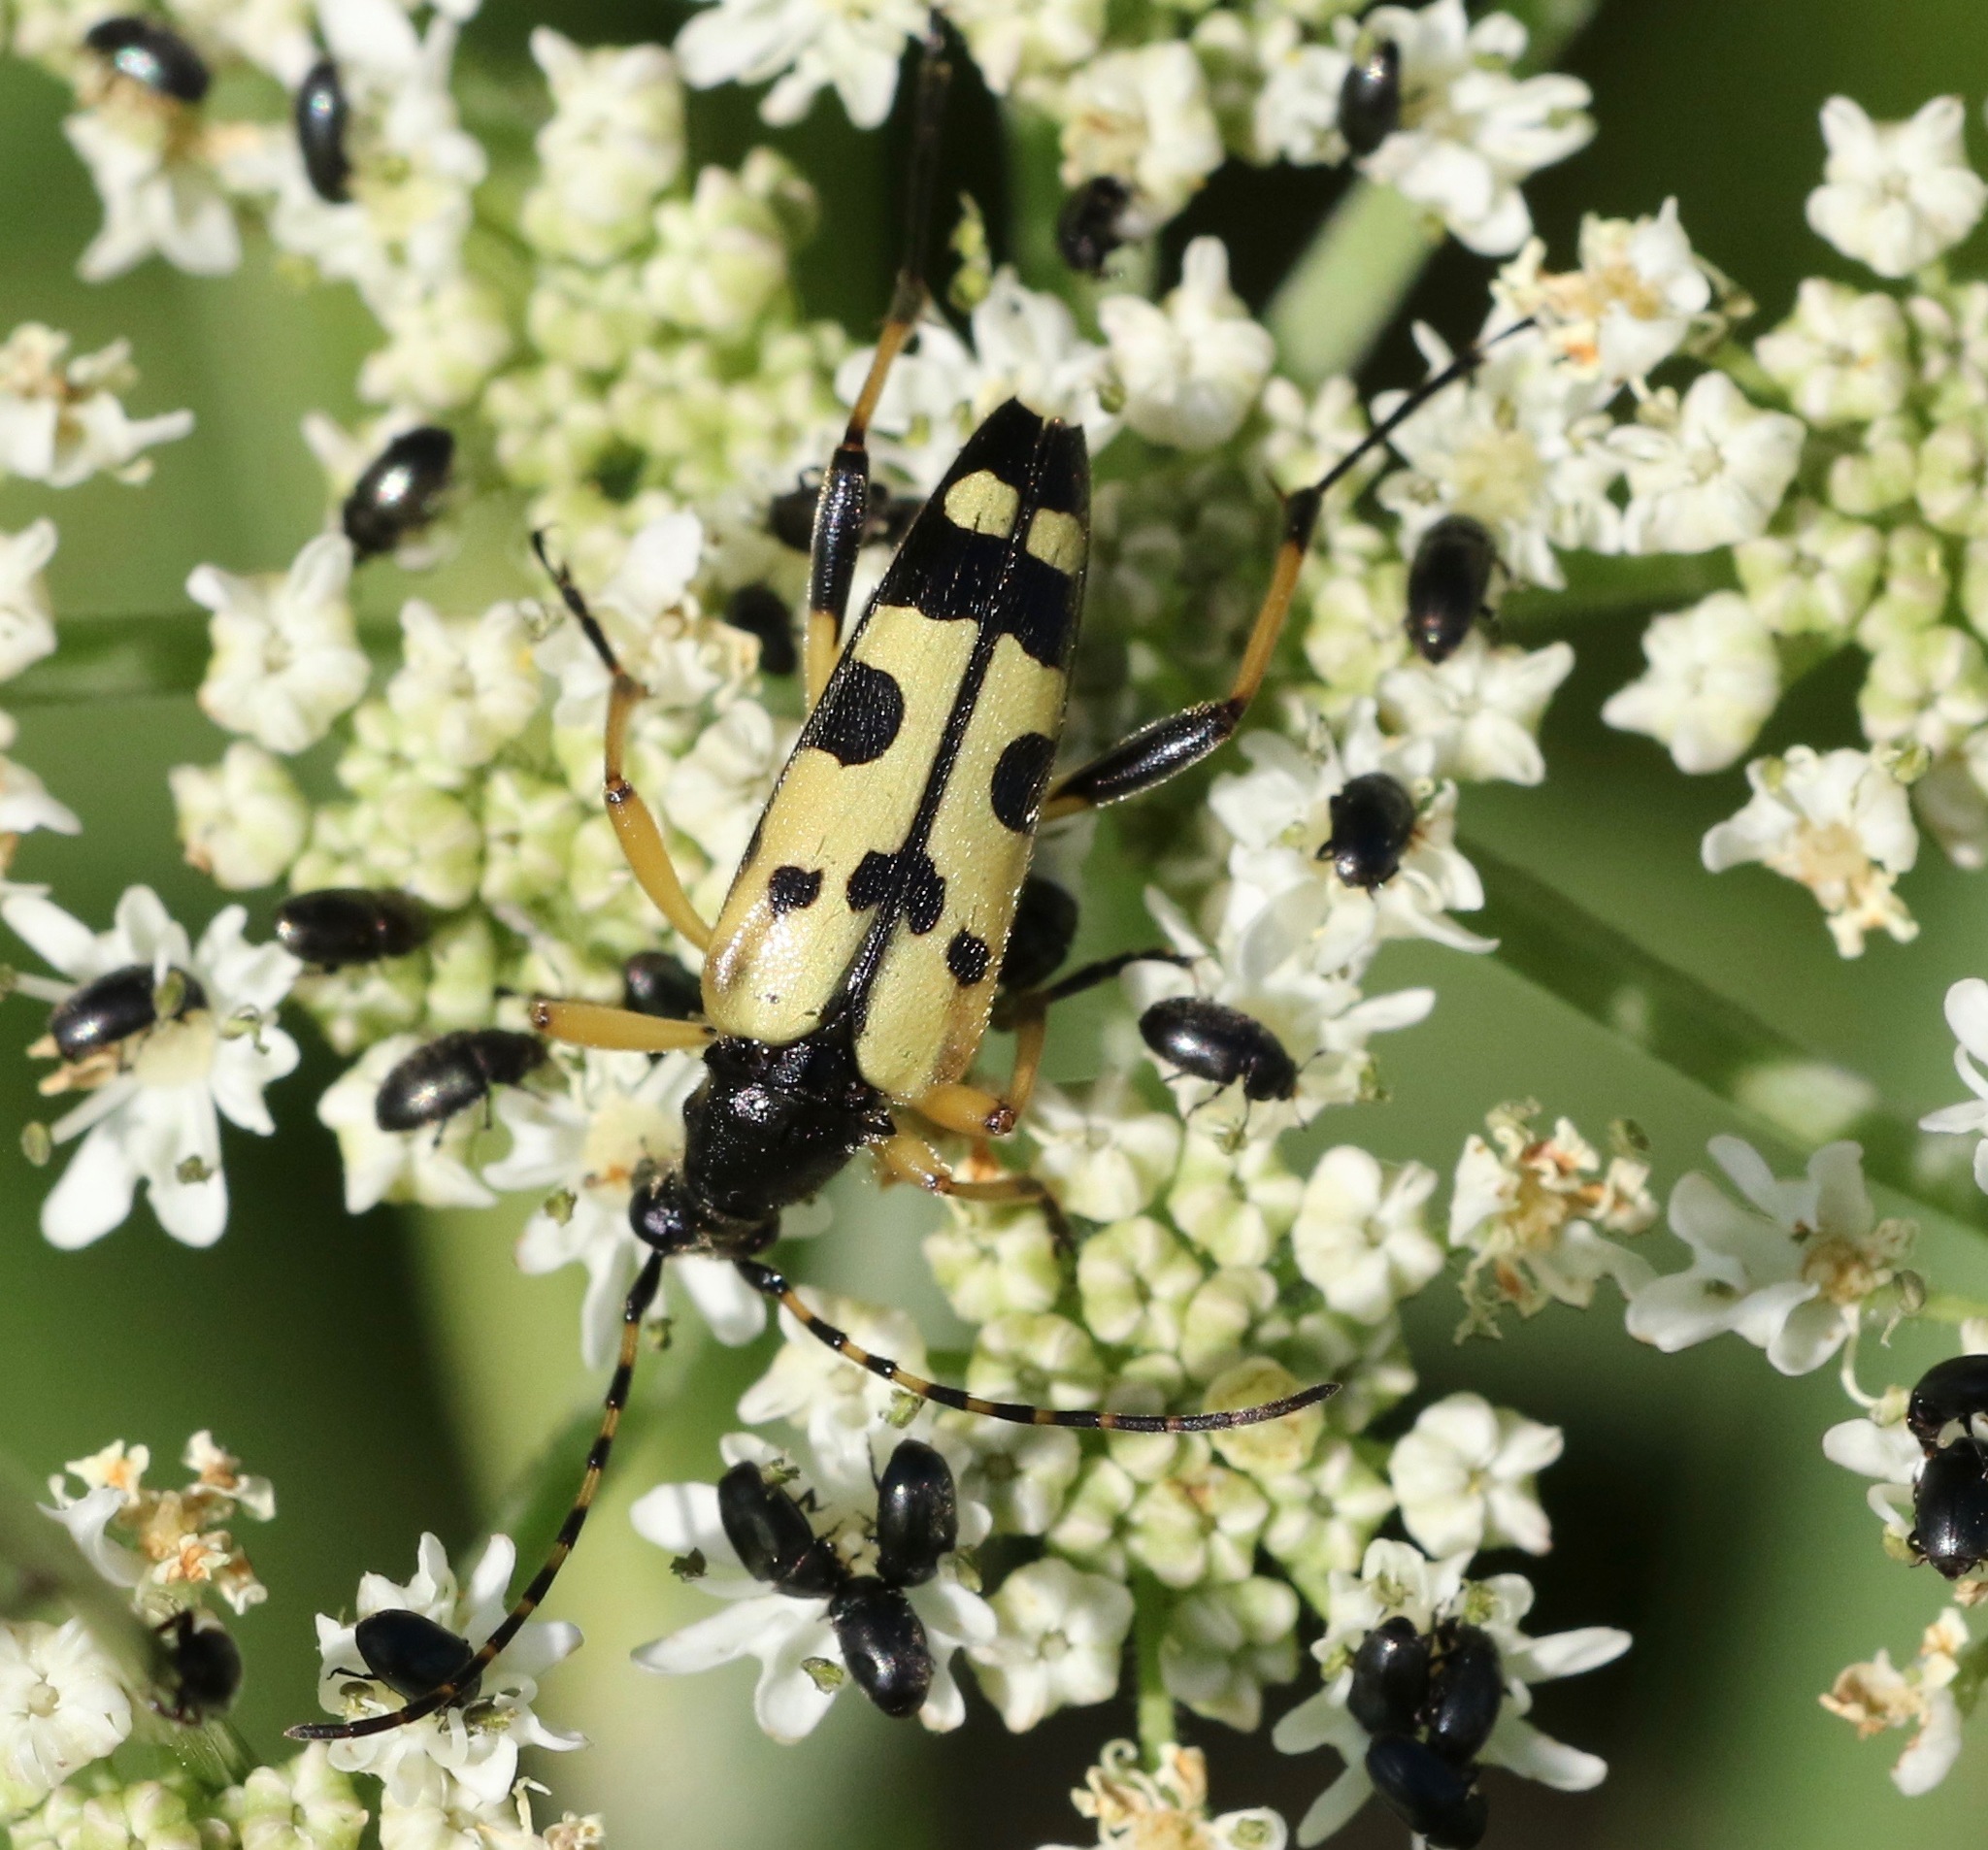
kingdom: Animalia
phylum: Arthropoda
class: Insecta
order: Coleoptera
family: Cerambycidae
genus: Rutpela
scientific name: Rutpela maculata
